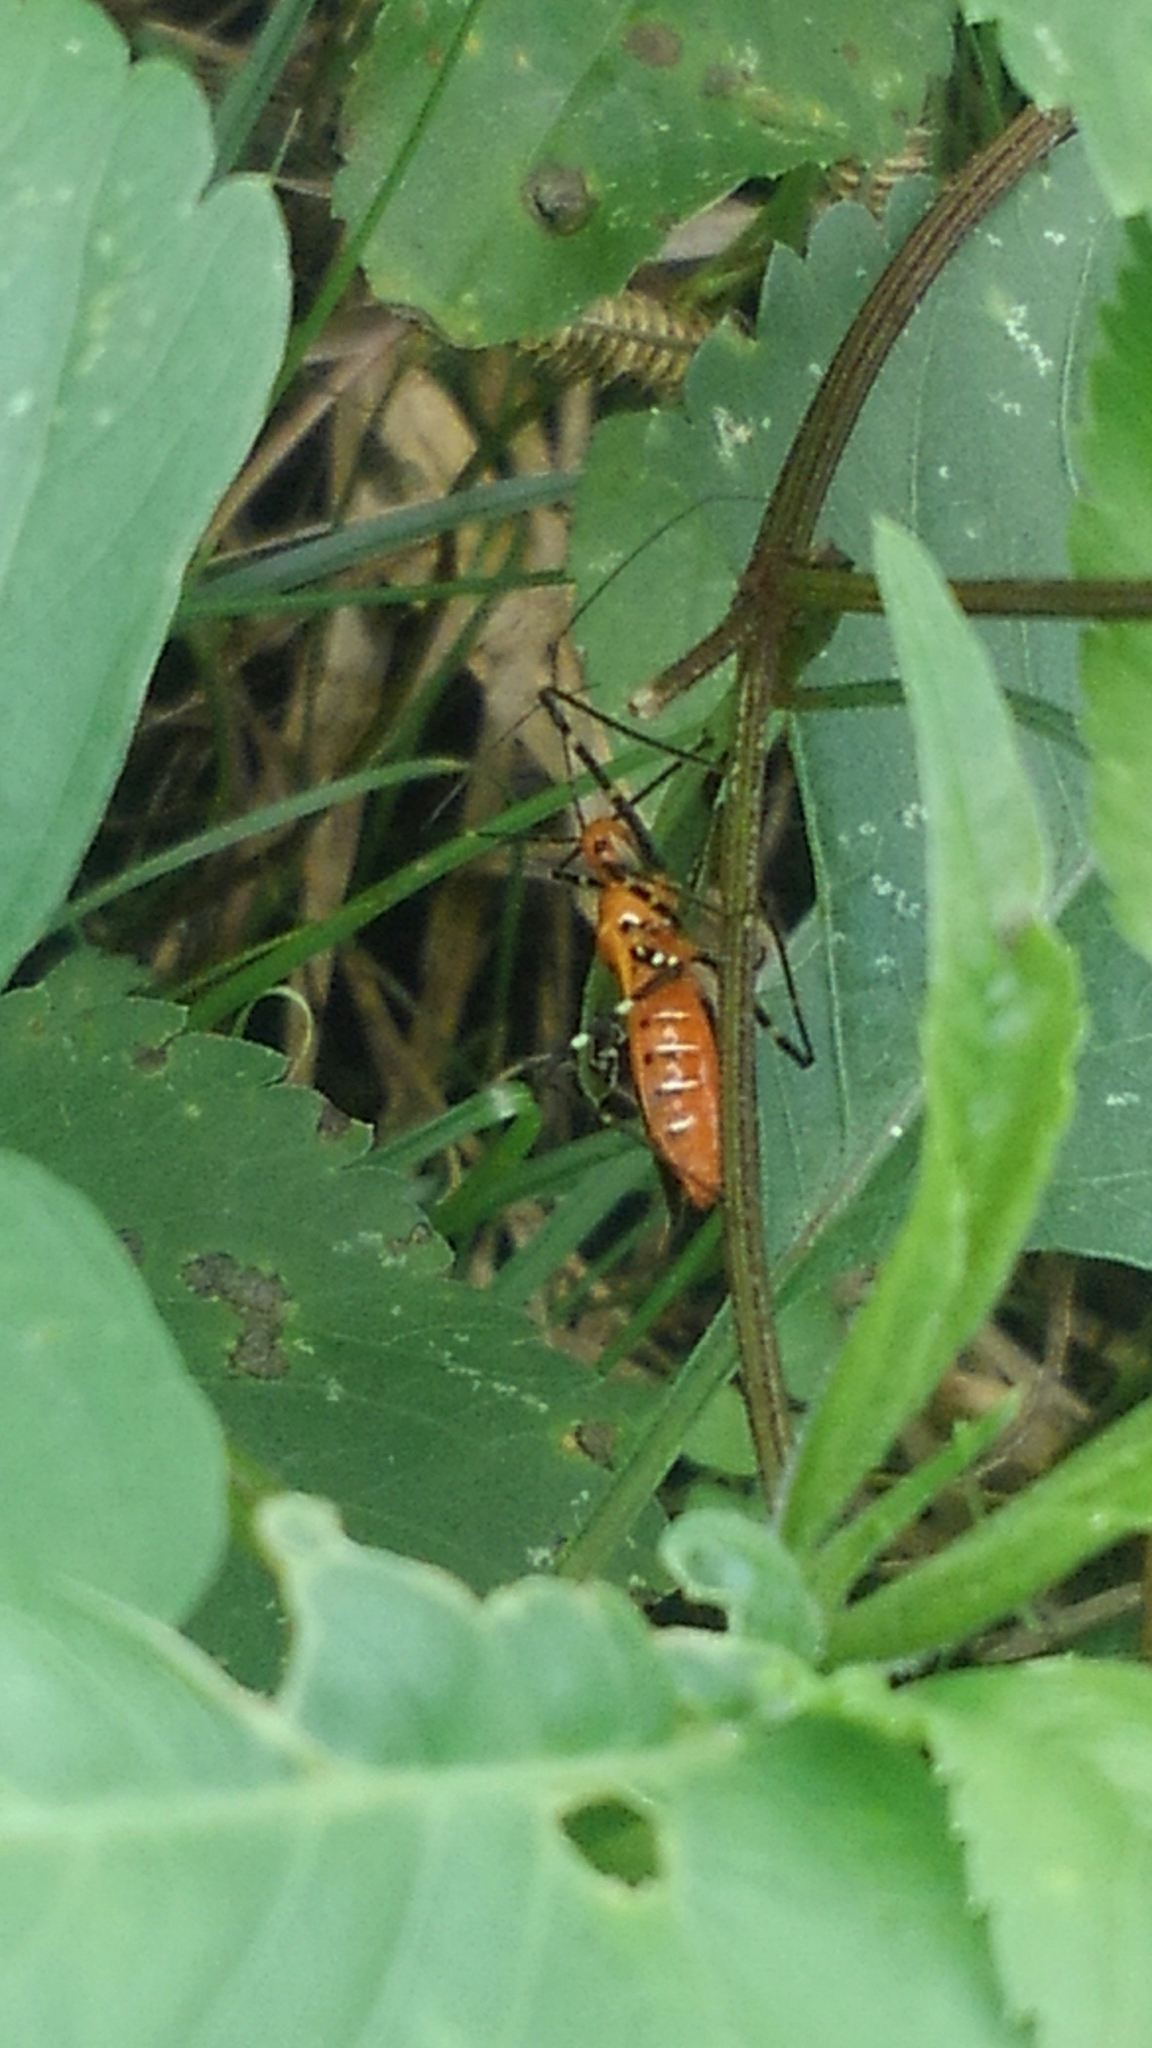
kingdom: Animalia
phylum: Arthropoda
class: Insecta
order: Hemiptera
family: Reduviidae
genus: Zelus
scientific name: Zelus longipes
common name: Milkweed assassin bug
